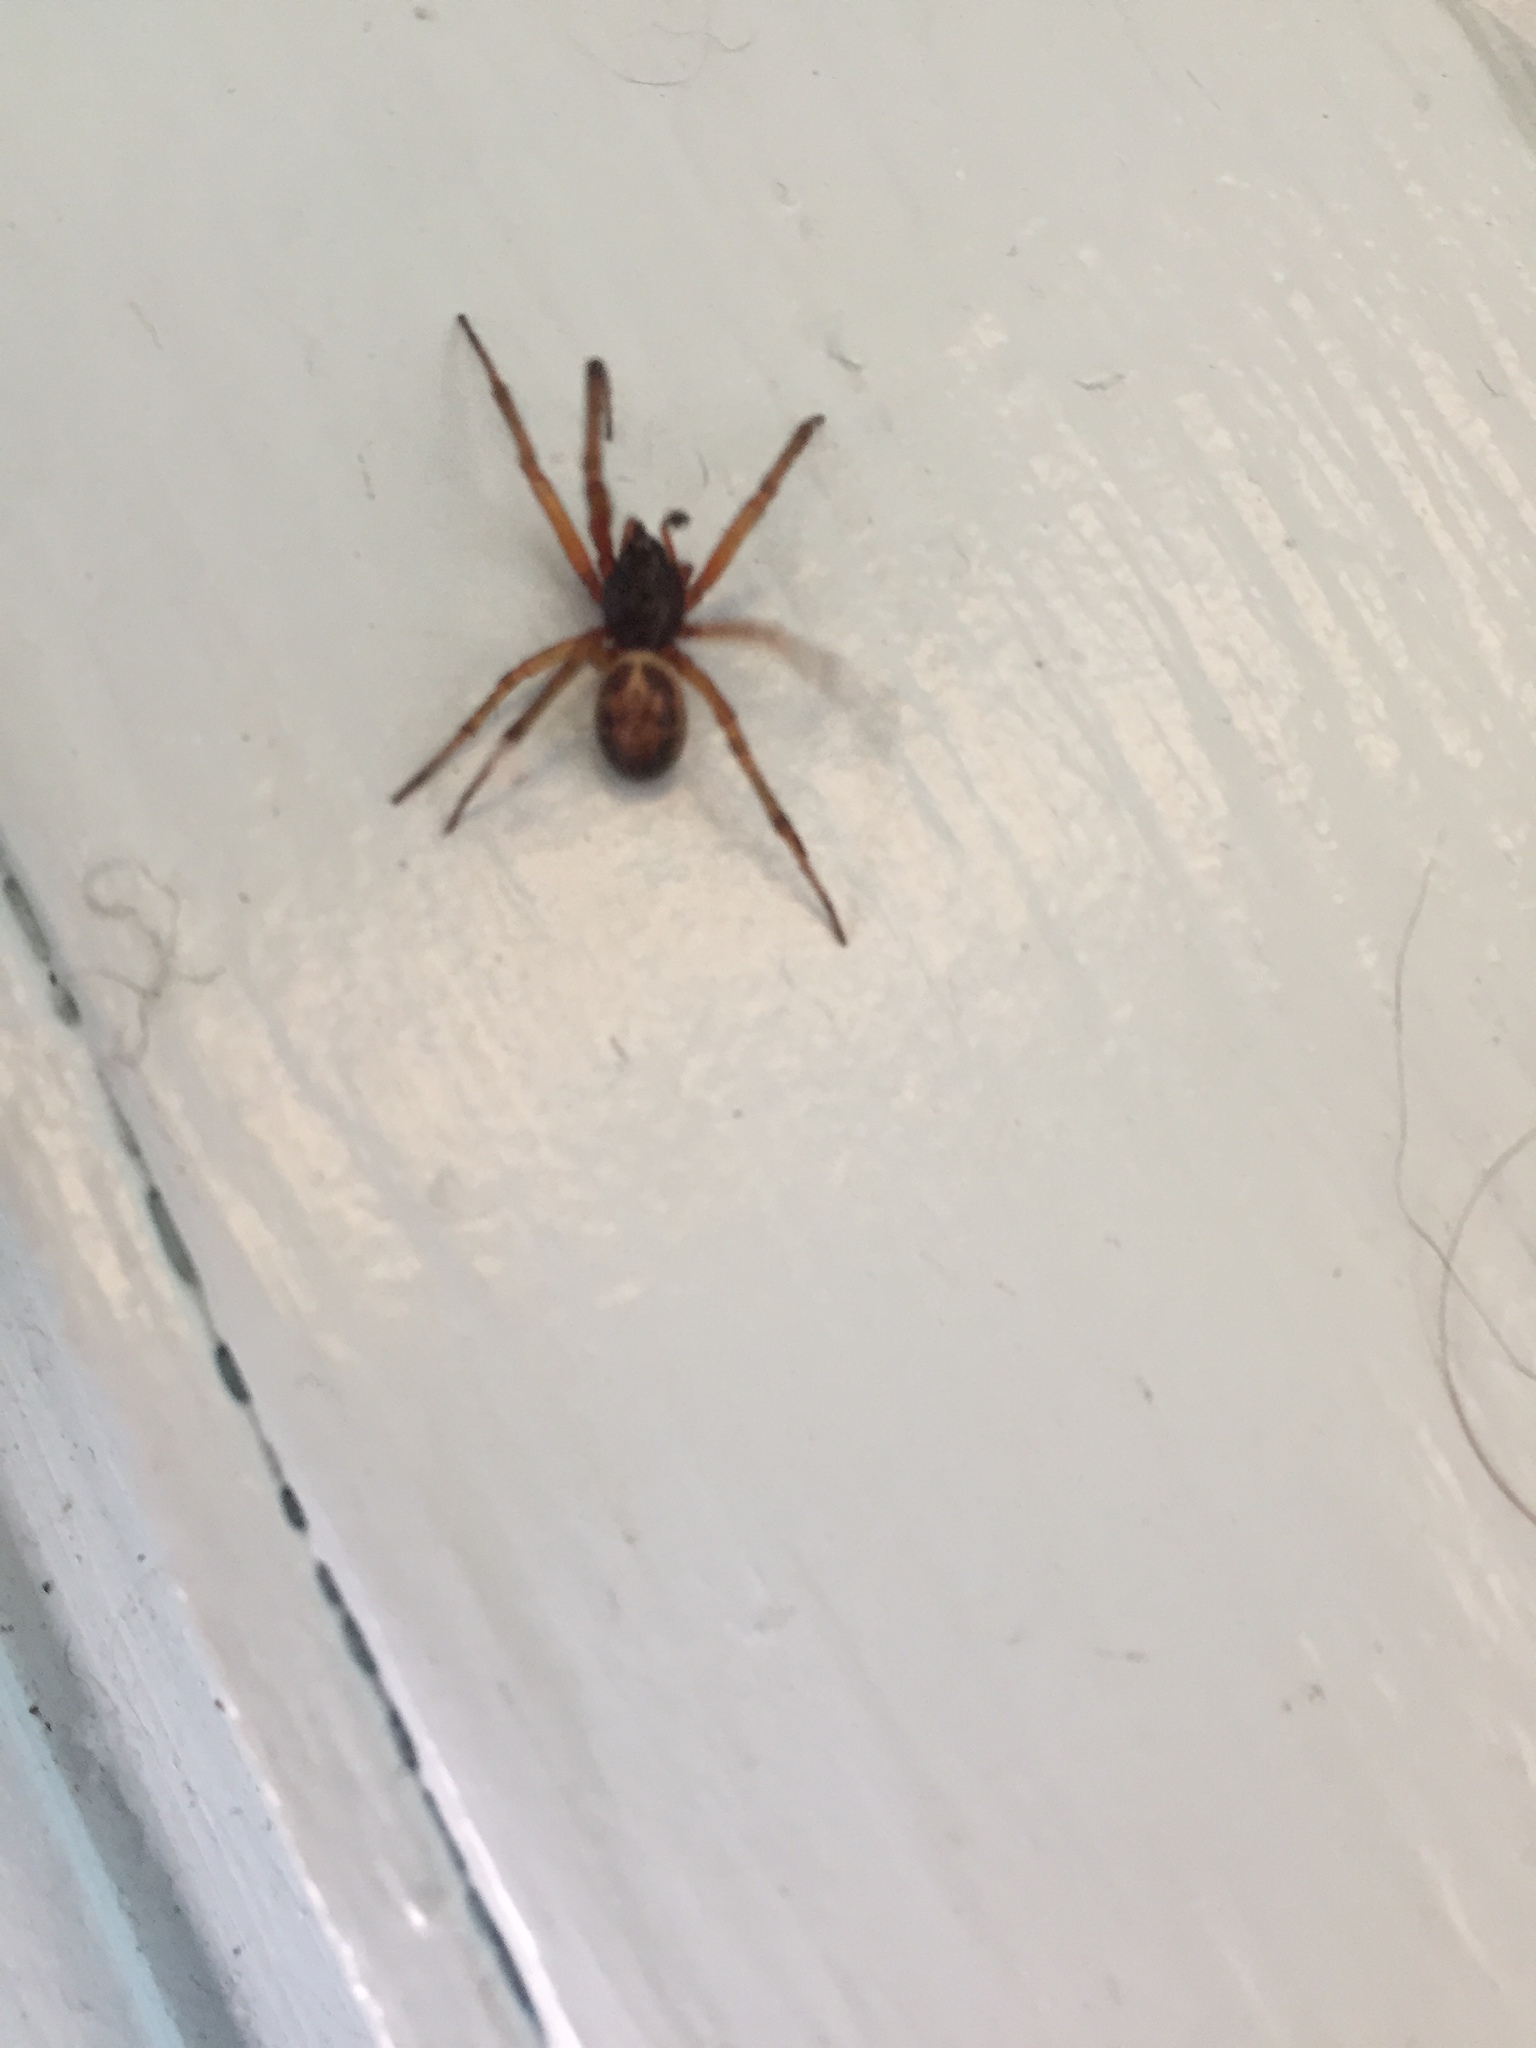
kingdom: Animalia
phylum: Arthropoda
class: Arachnida
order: Araneae
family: Theridiidae
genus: Steatoda
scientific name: Steatoda nobilis
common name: Cobweb weaver
